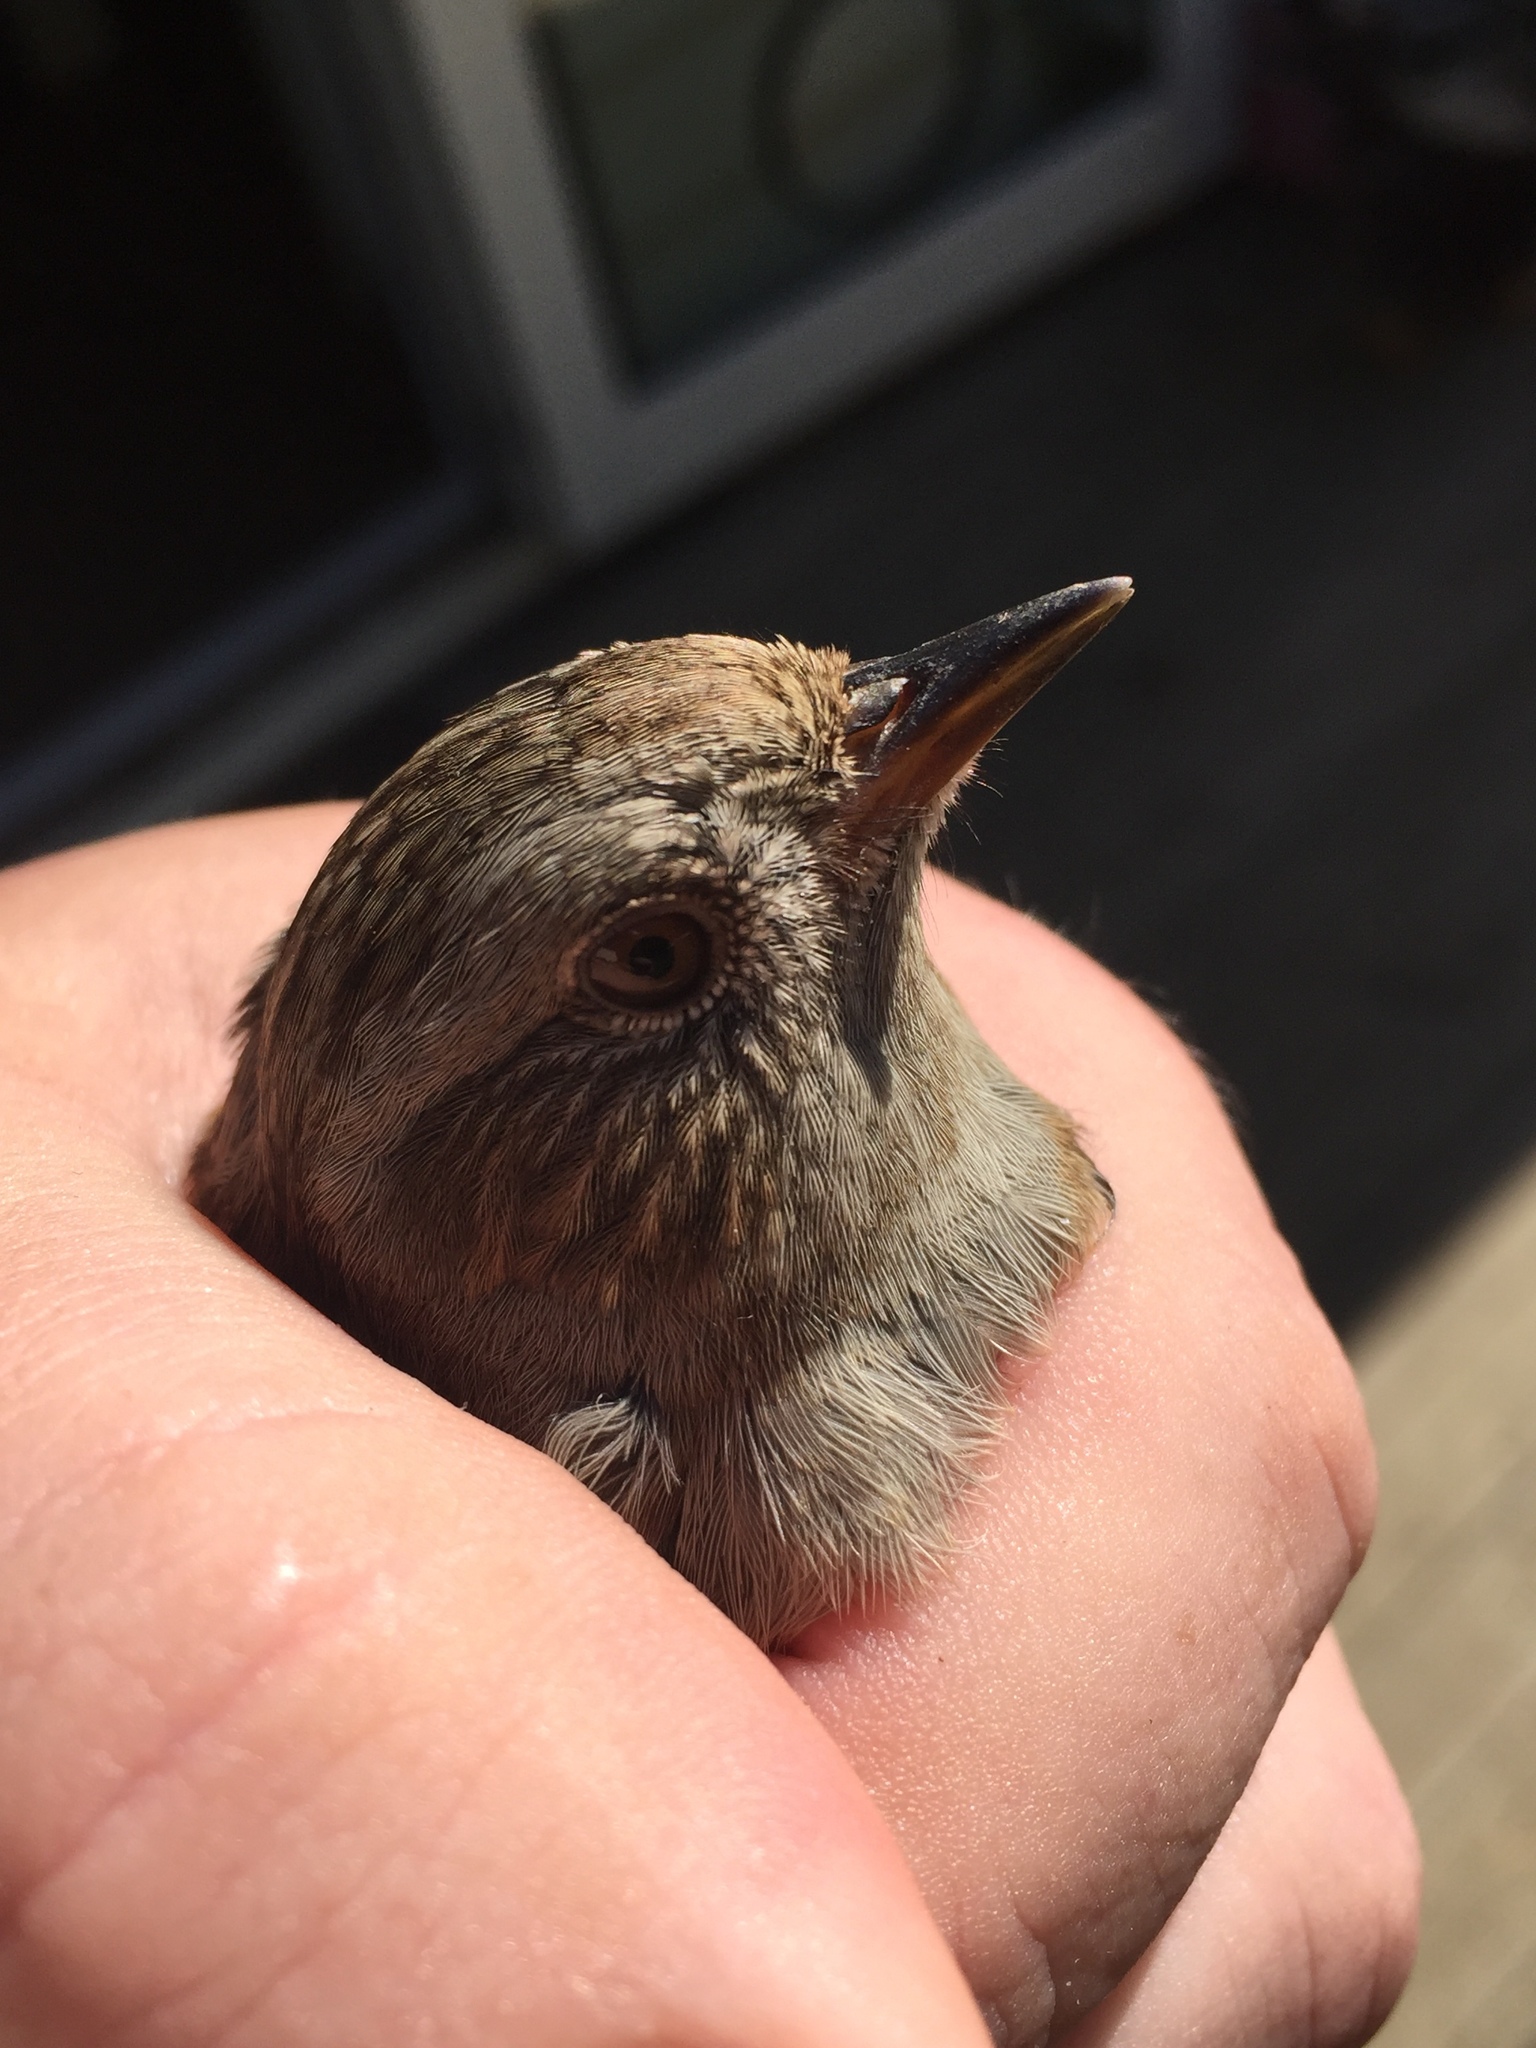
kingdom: Animalia
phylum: Chordata
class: Aves
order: Passeriformes
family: Prunellidae
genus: Prunella
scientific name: Prunella modularis
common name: Dunnock
